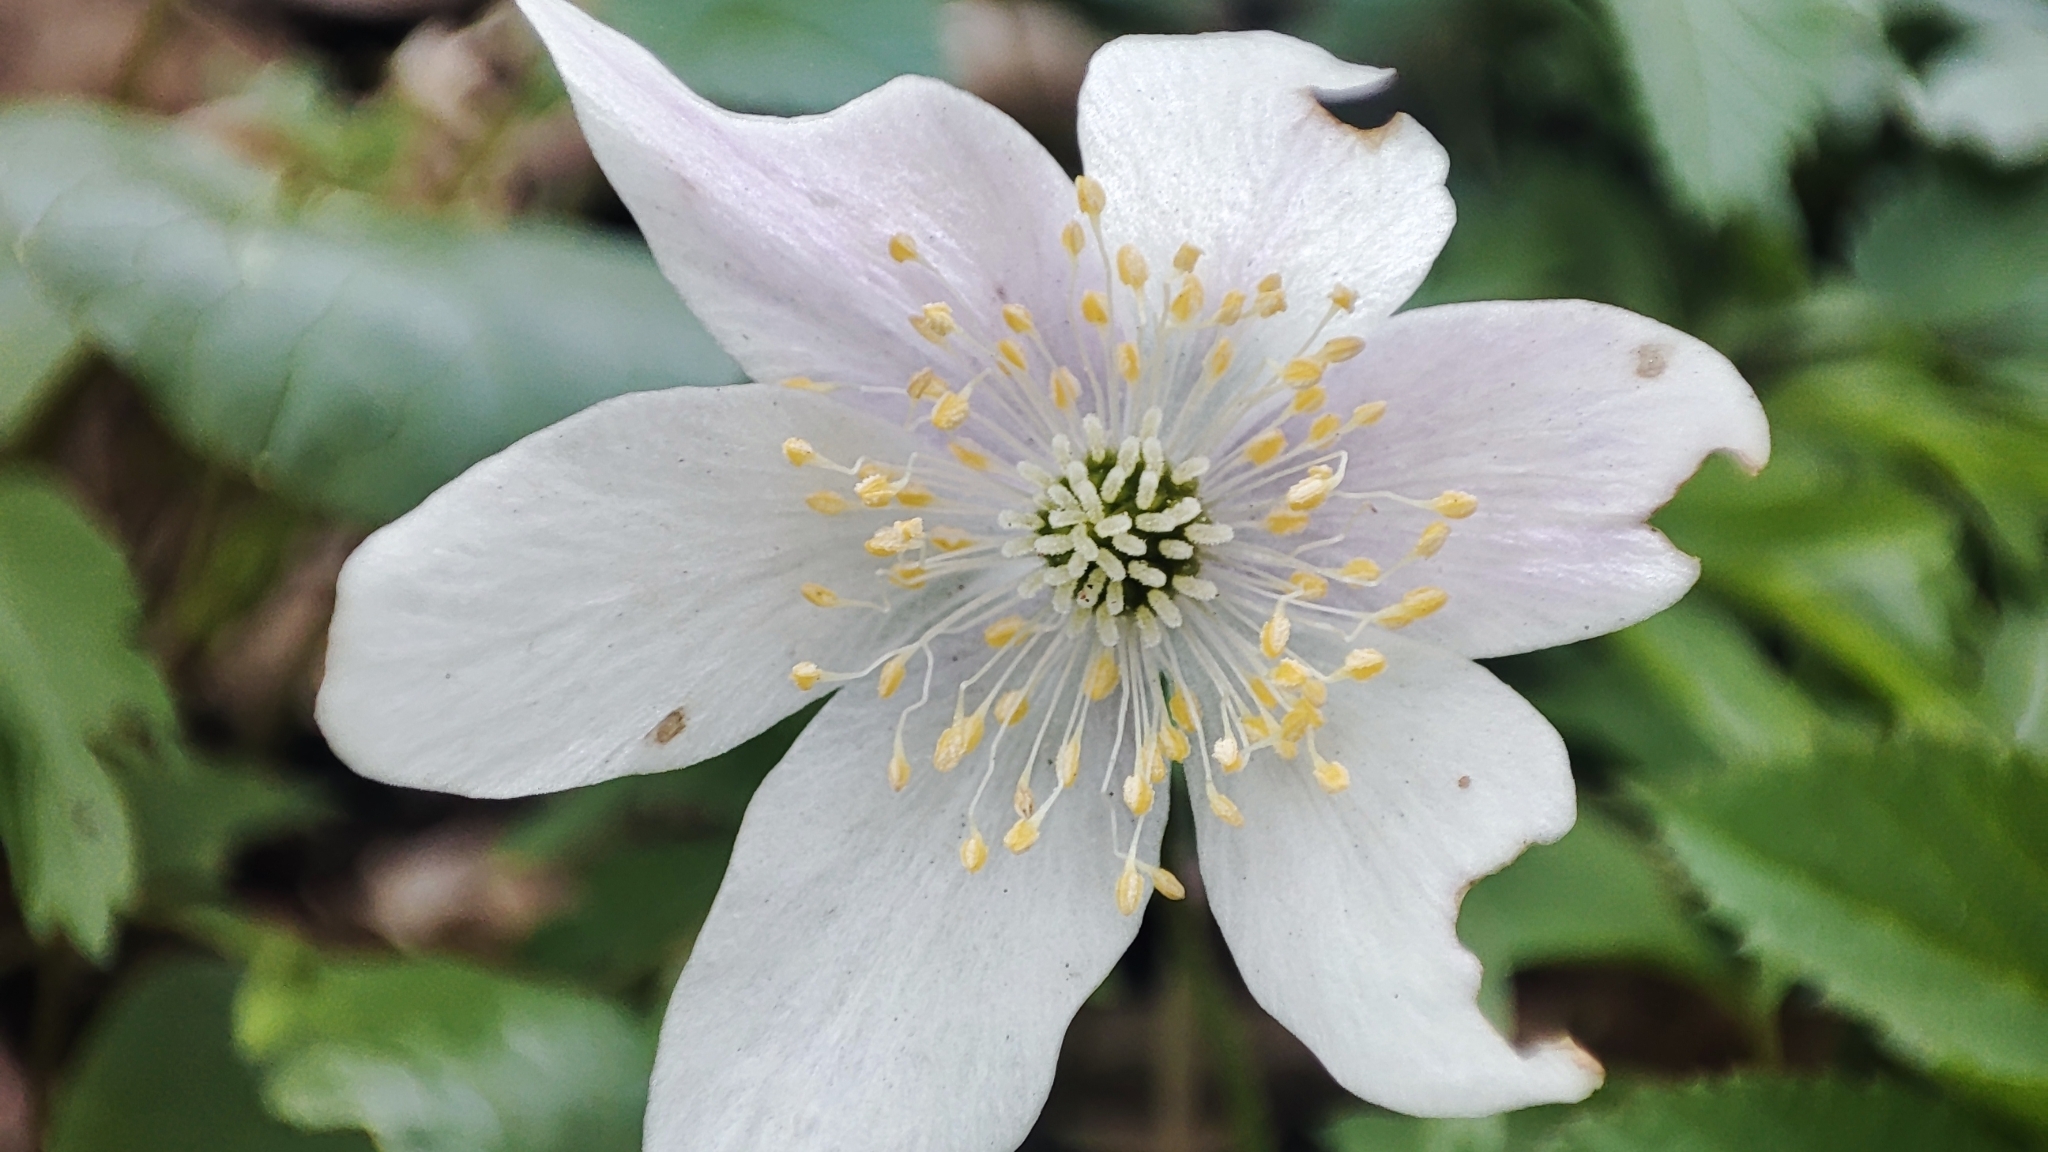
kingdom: Plantae
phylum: Tracheophyta
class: Magnoliopsida
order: Ranunculales
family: Ranunculaceae
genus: Anemone
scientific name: Anemone nemorosa
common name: Wood anemone
